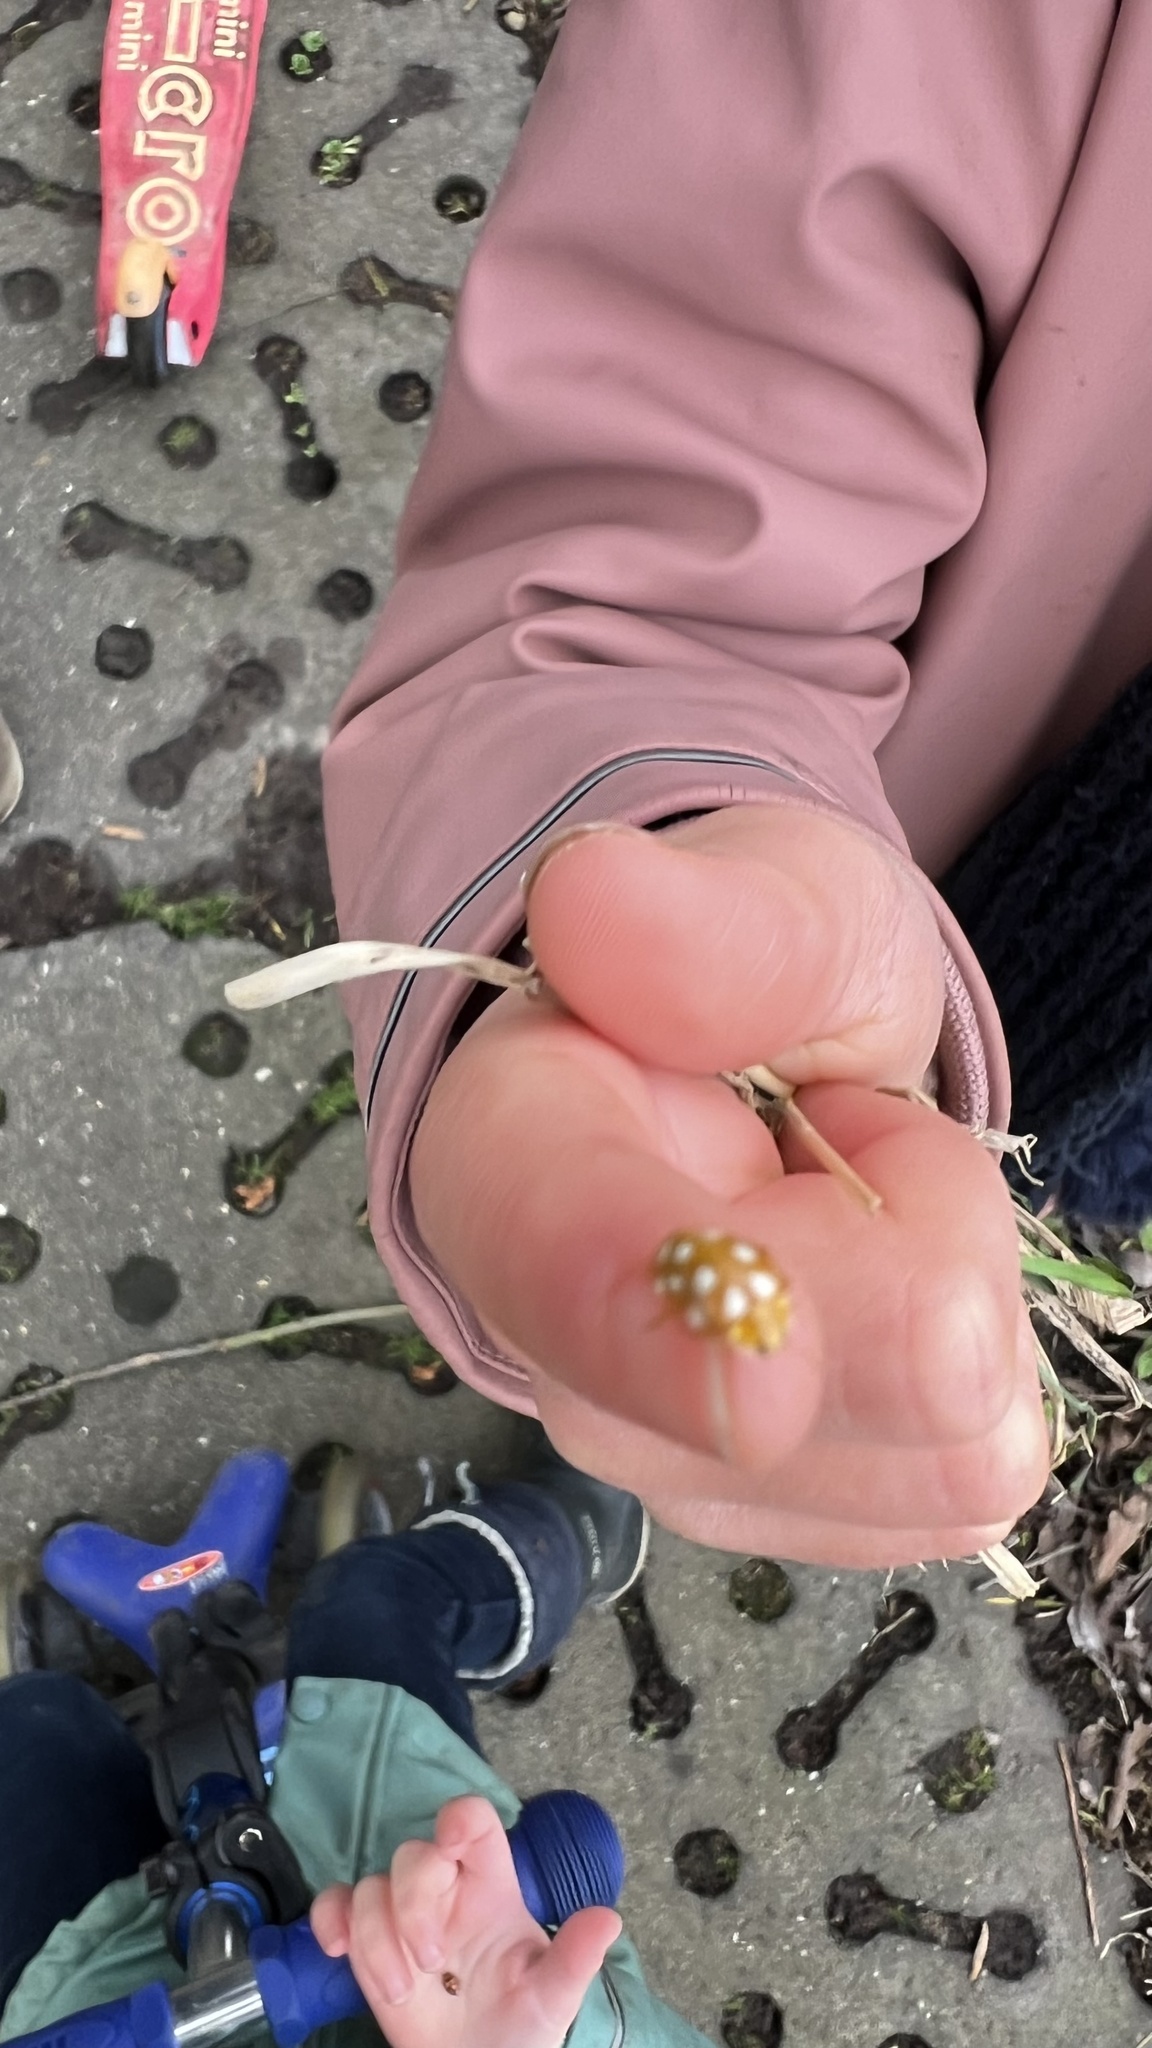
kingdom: Animalia
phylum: Arthropoda
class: Insecta
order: Coleoptera
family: Coccinellidae
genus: Halyzia
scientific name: Halyzia sedecimguttata
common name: Orange ladybird
